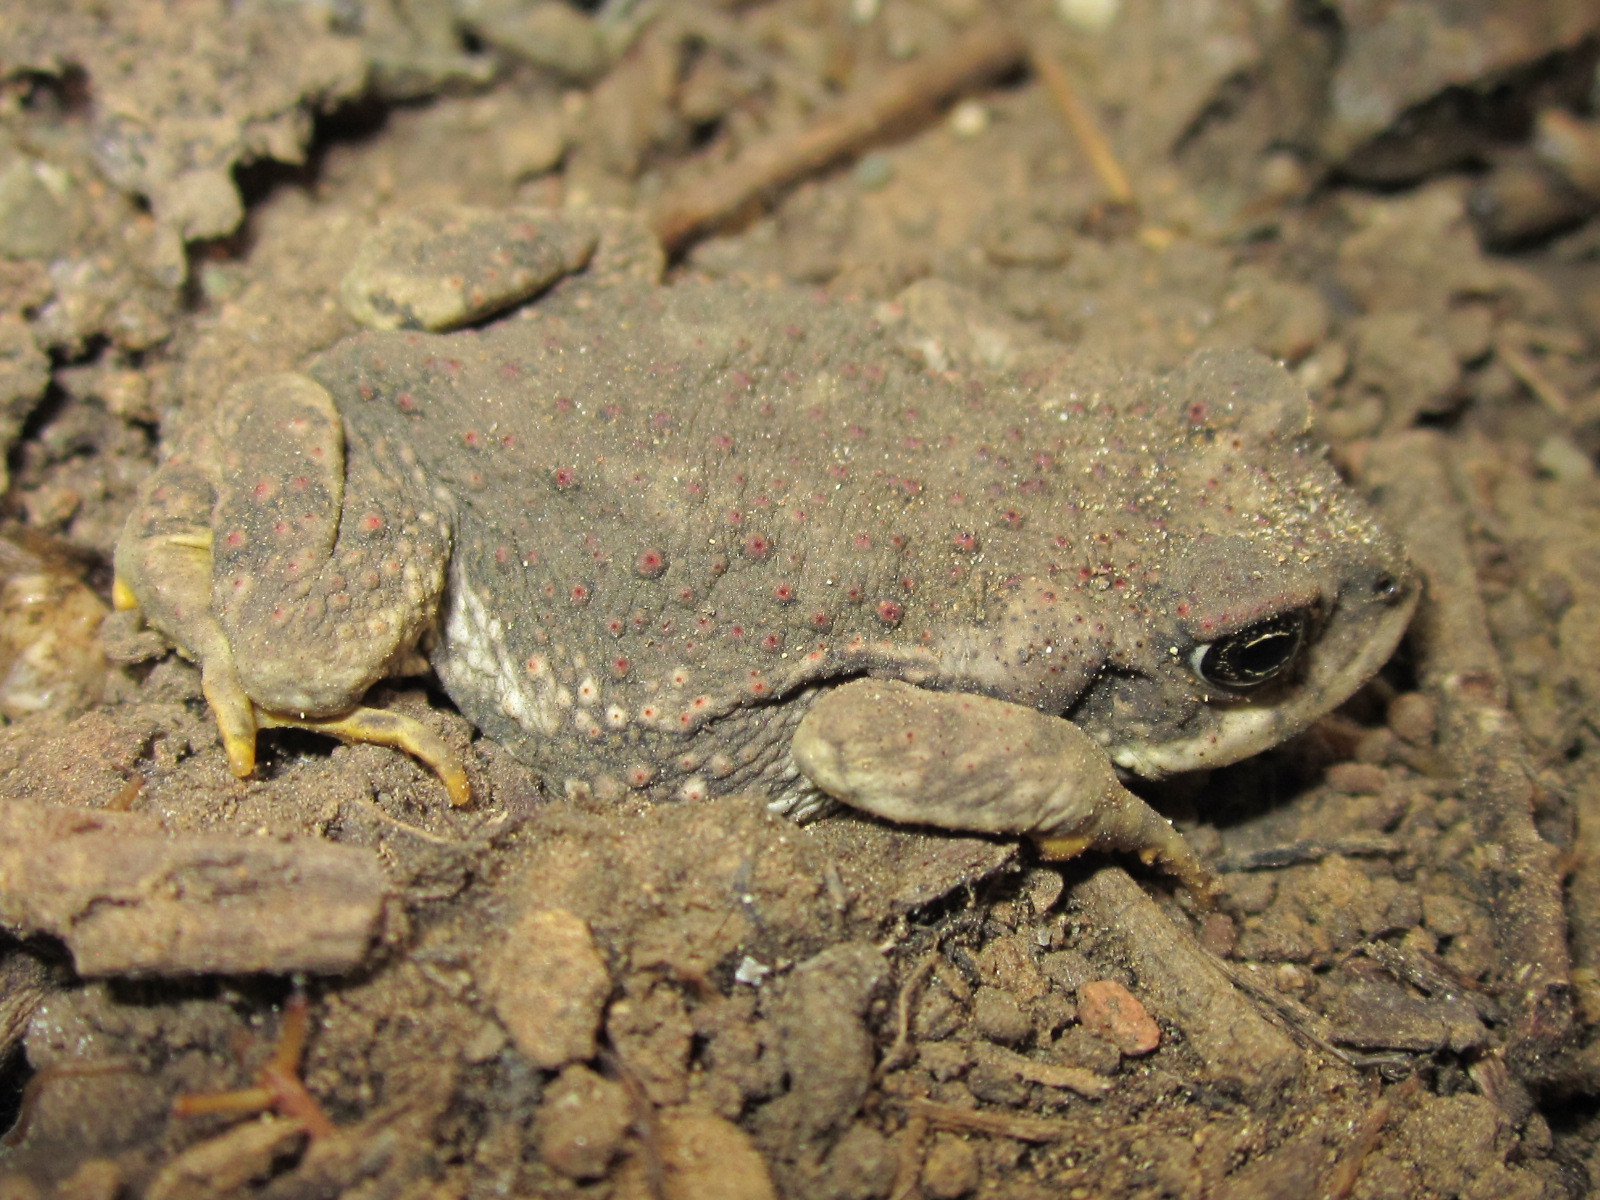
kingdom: Animalia
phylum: Chordata
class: Amphibia
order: Anura
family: Bufonidae
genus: Rhinella
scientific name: Rhinella arunco
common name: Concepcion toad
